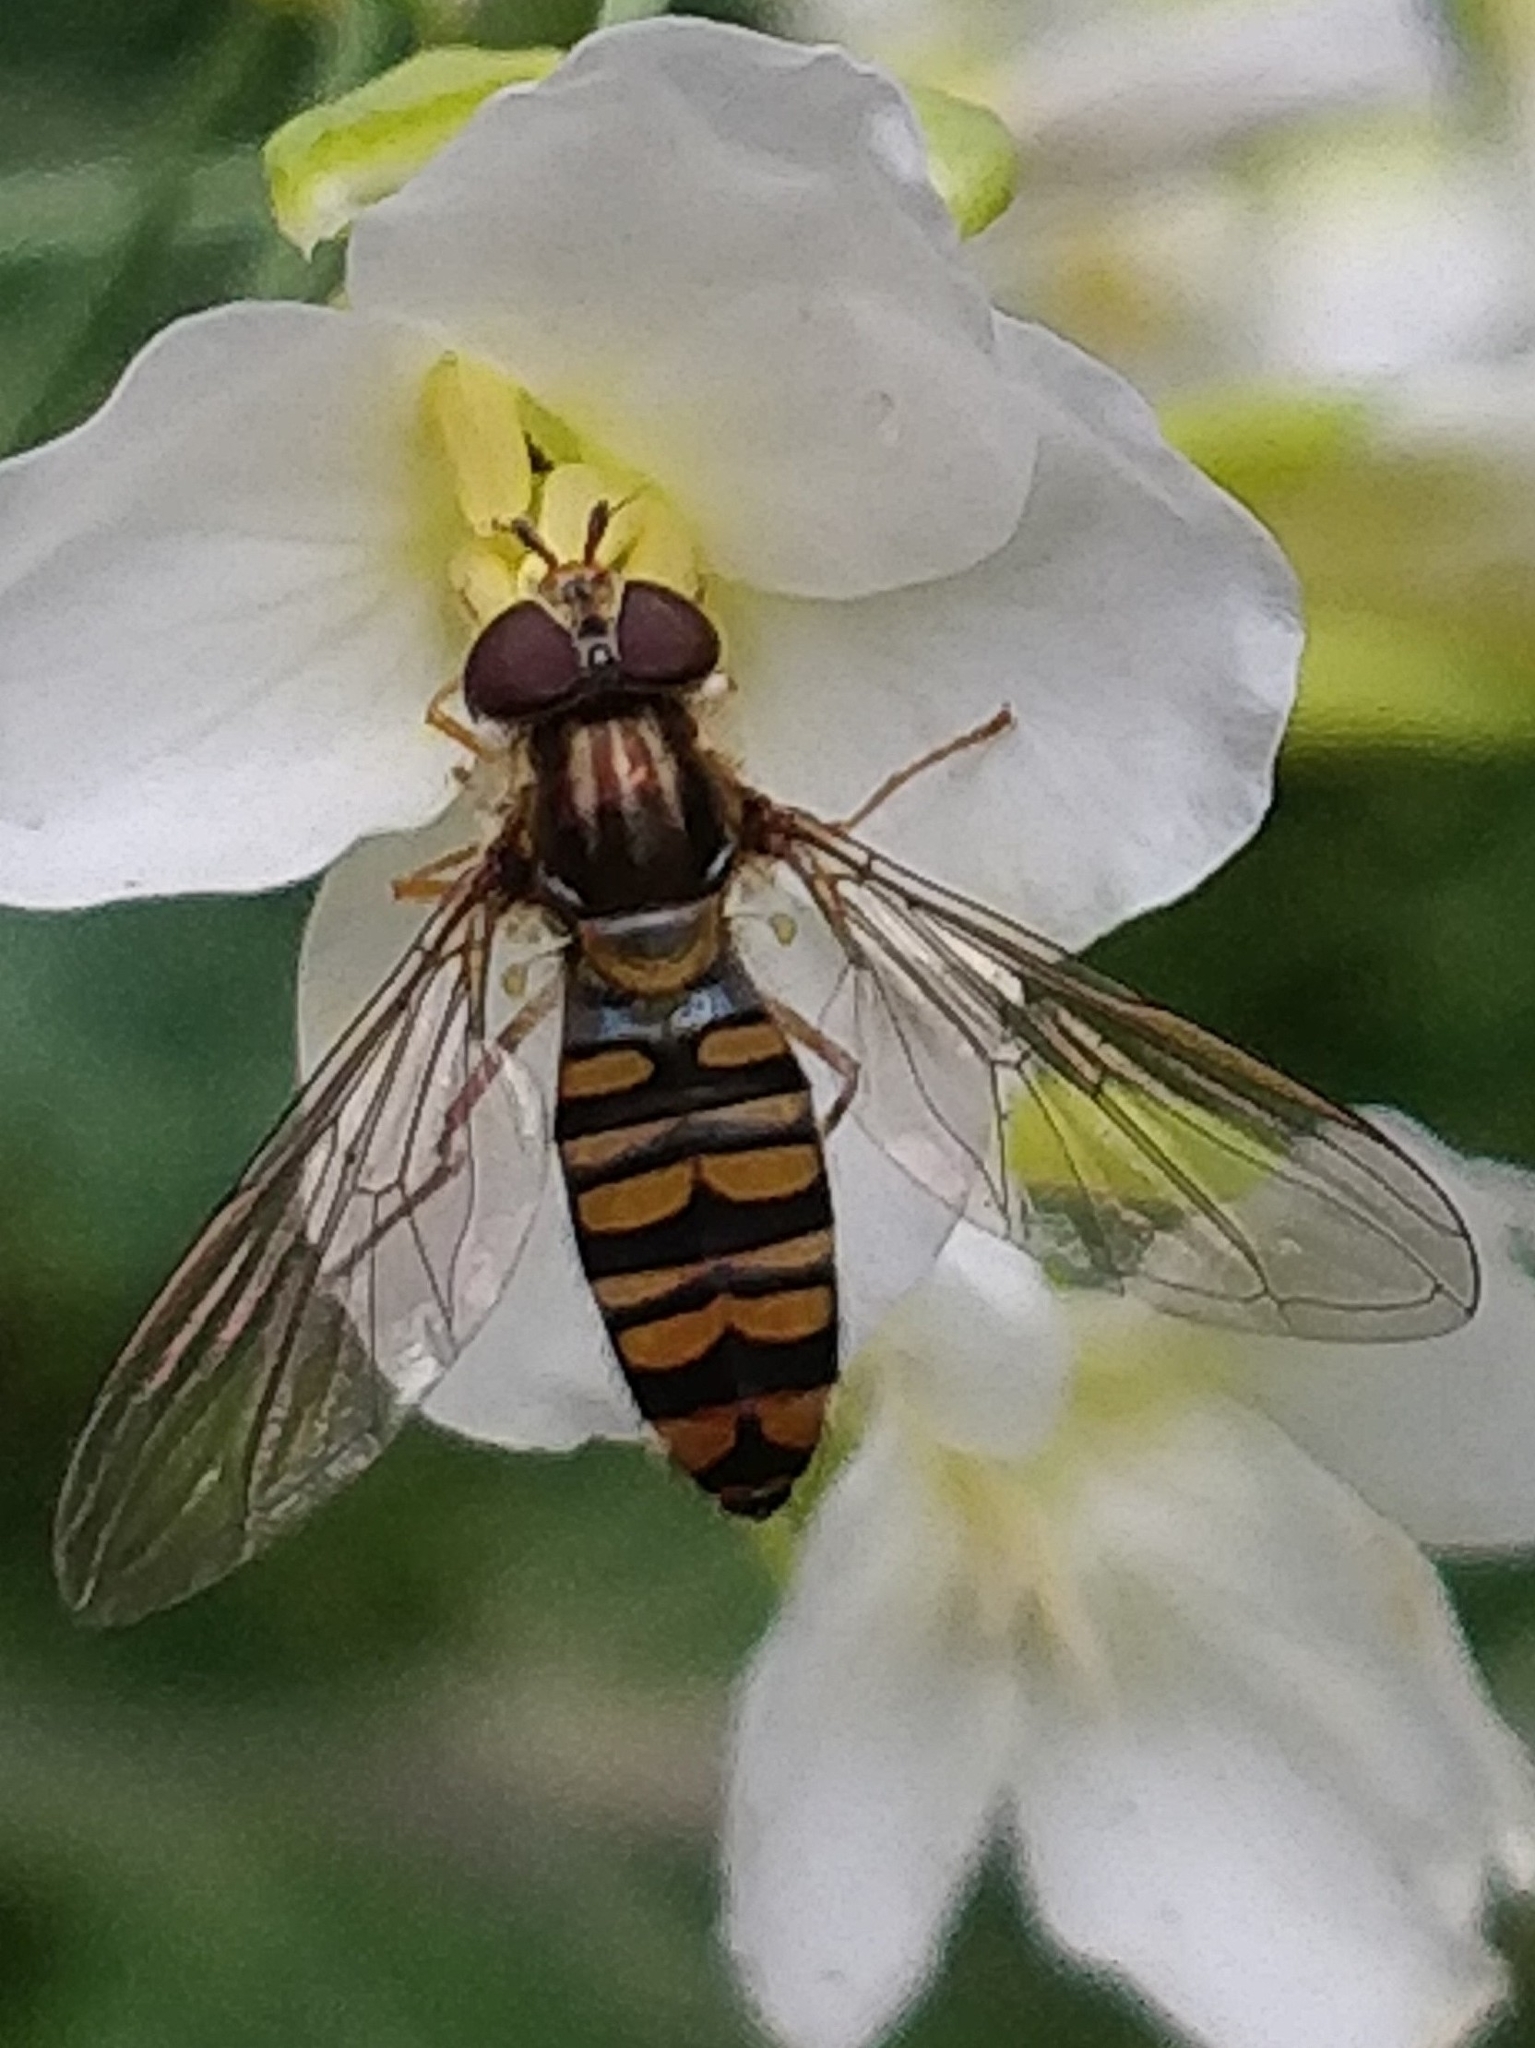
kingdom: Animalia
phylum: Arthropoda
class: Insecta
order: Diptera
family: Syrphidae
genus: Episyrphus
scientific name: Episyrphus balteatus
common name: Marmalade hoverfly
